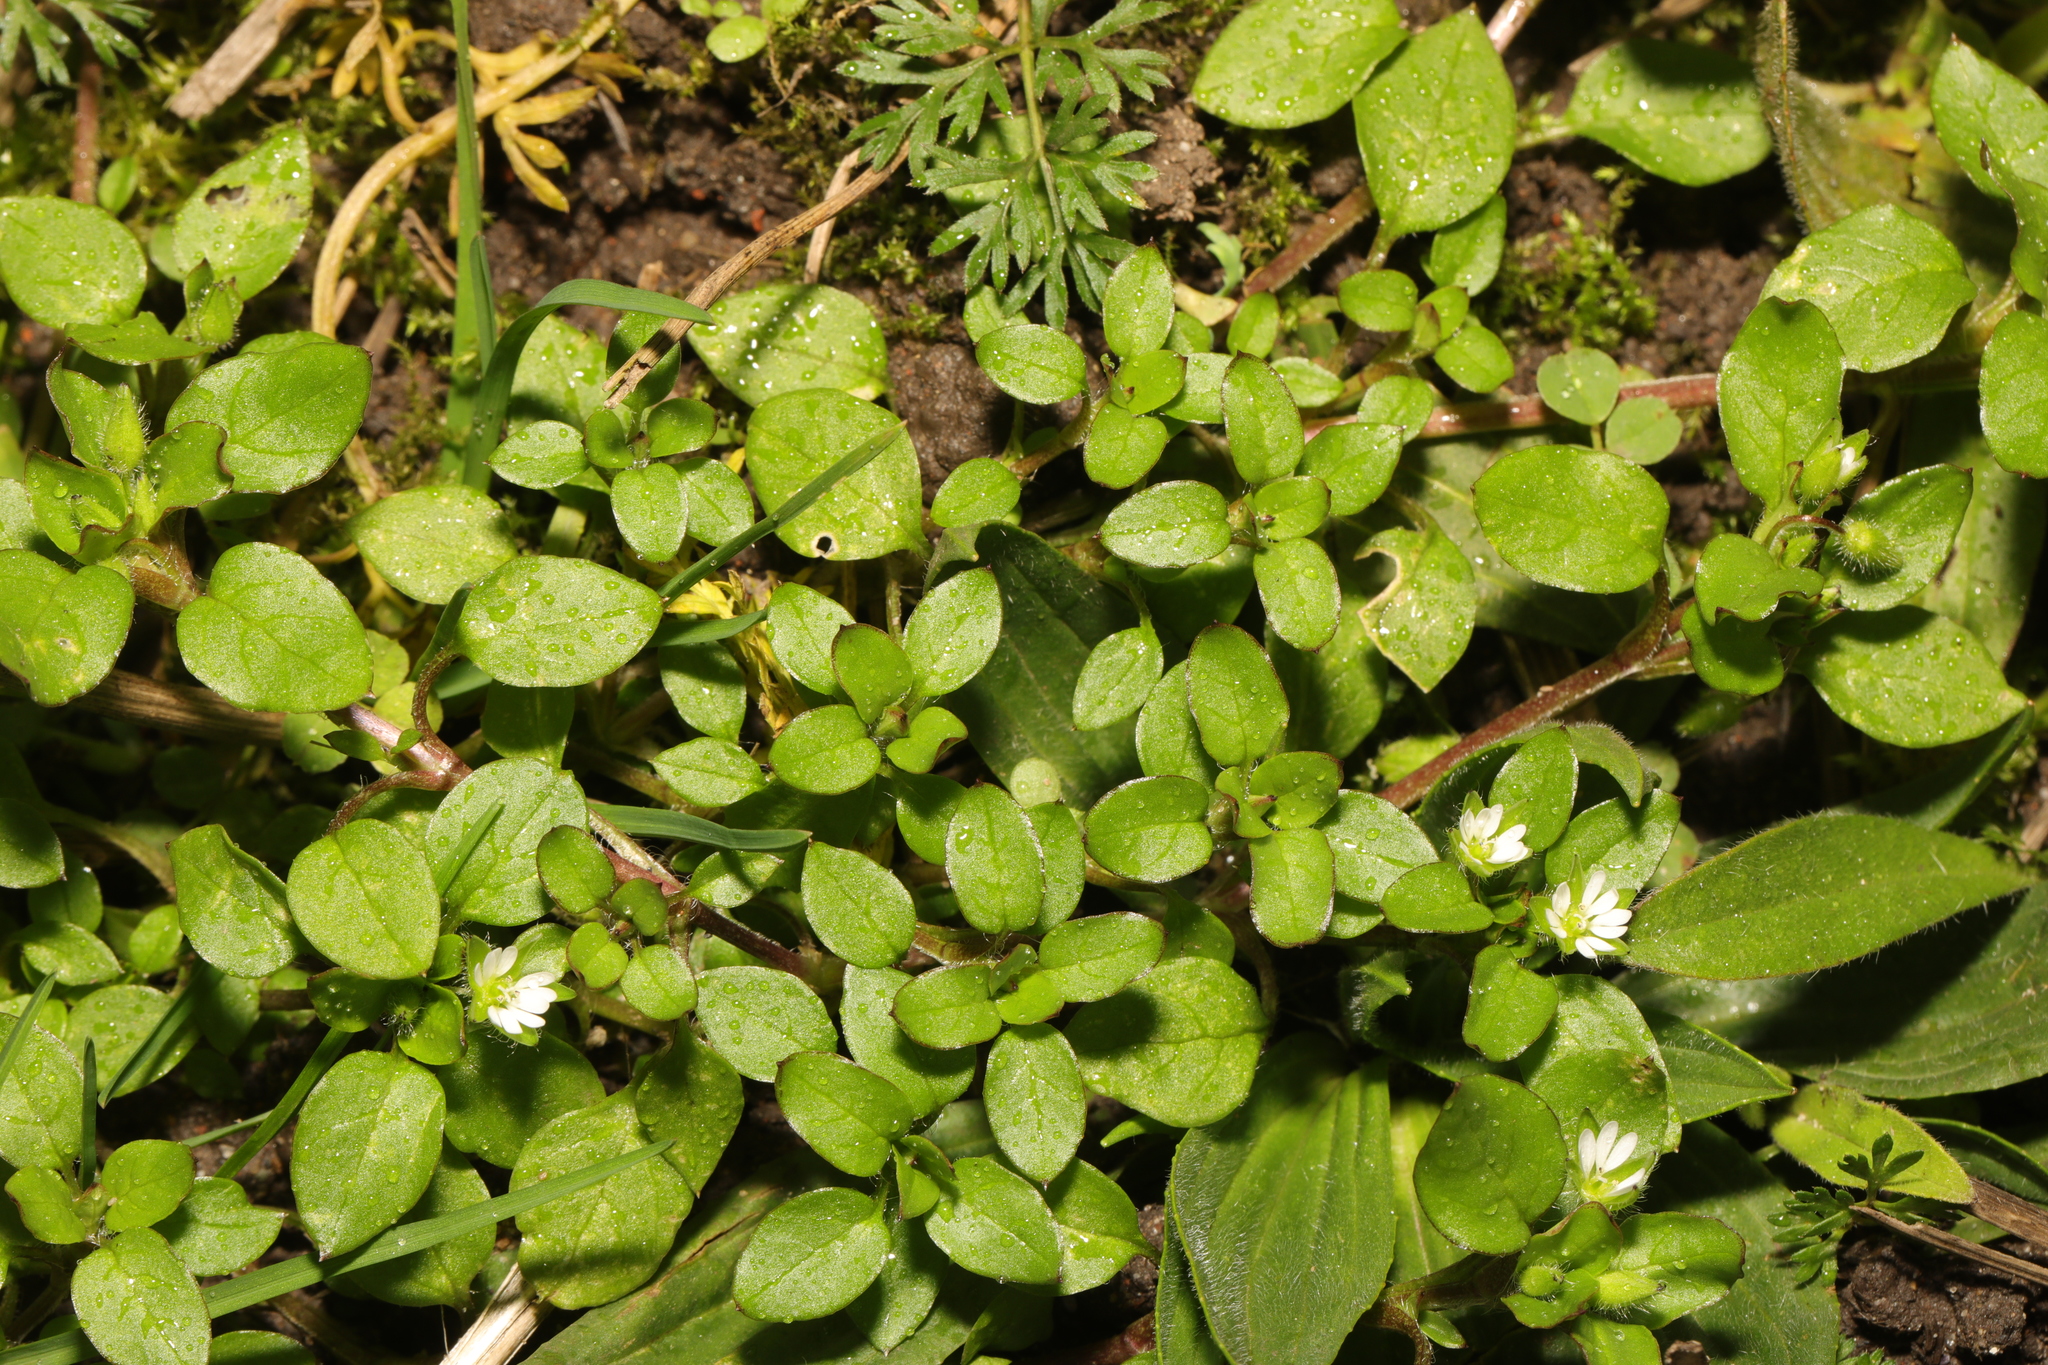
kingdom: Plantae
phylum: Tracheophyta
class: Magnoliopsida
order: Caryophyllales
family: Caryophyllaceae
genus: Stellaria
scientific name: Stellaria media
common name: Common chickweed
